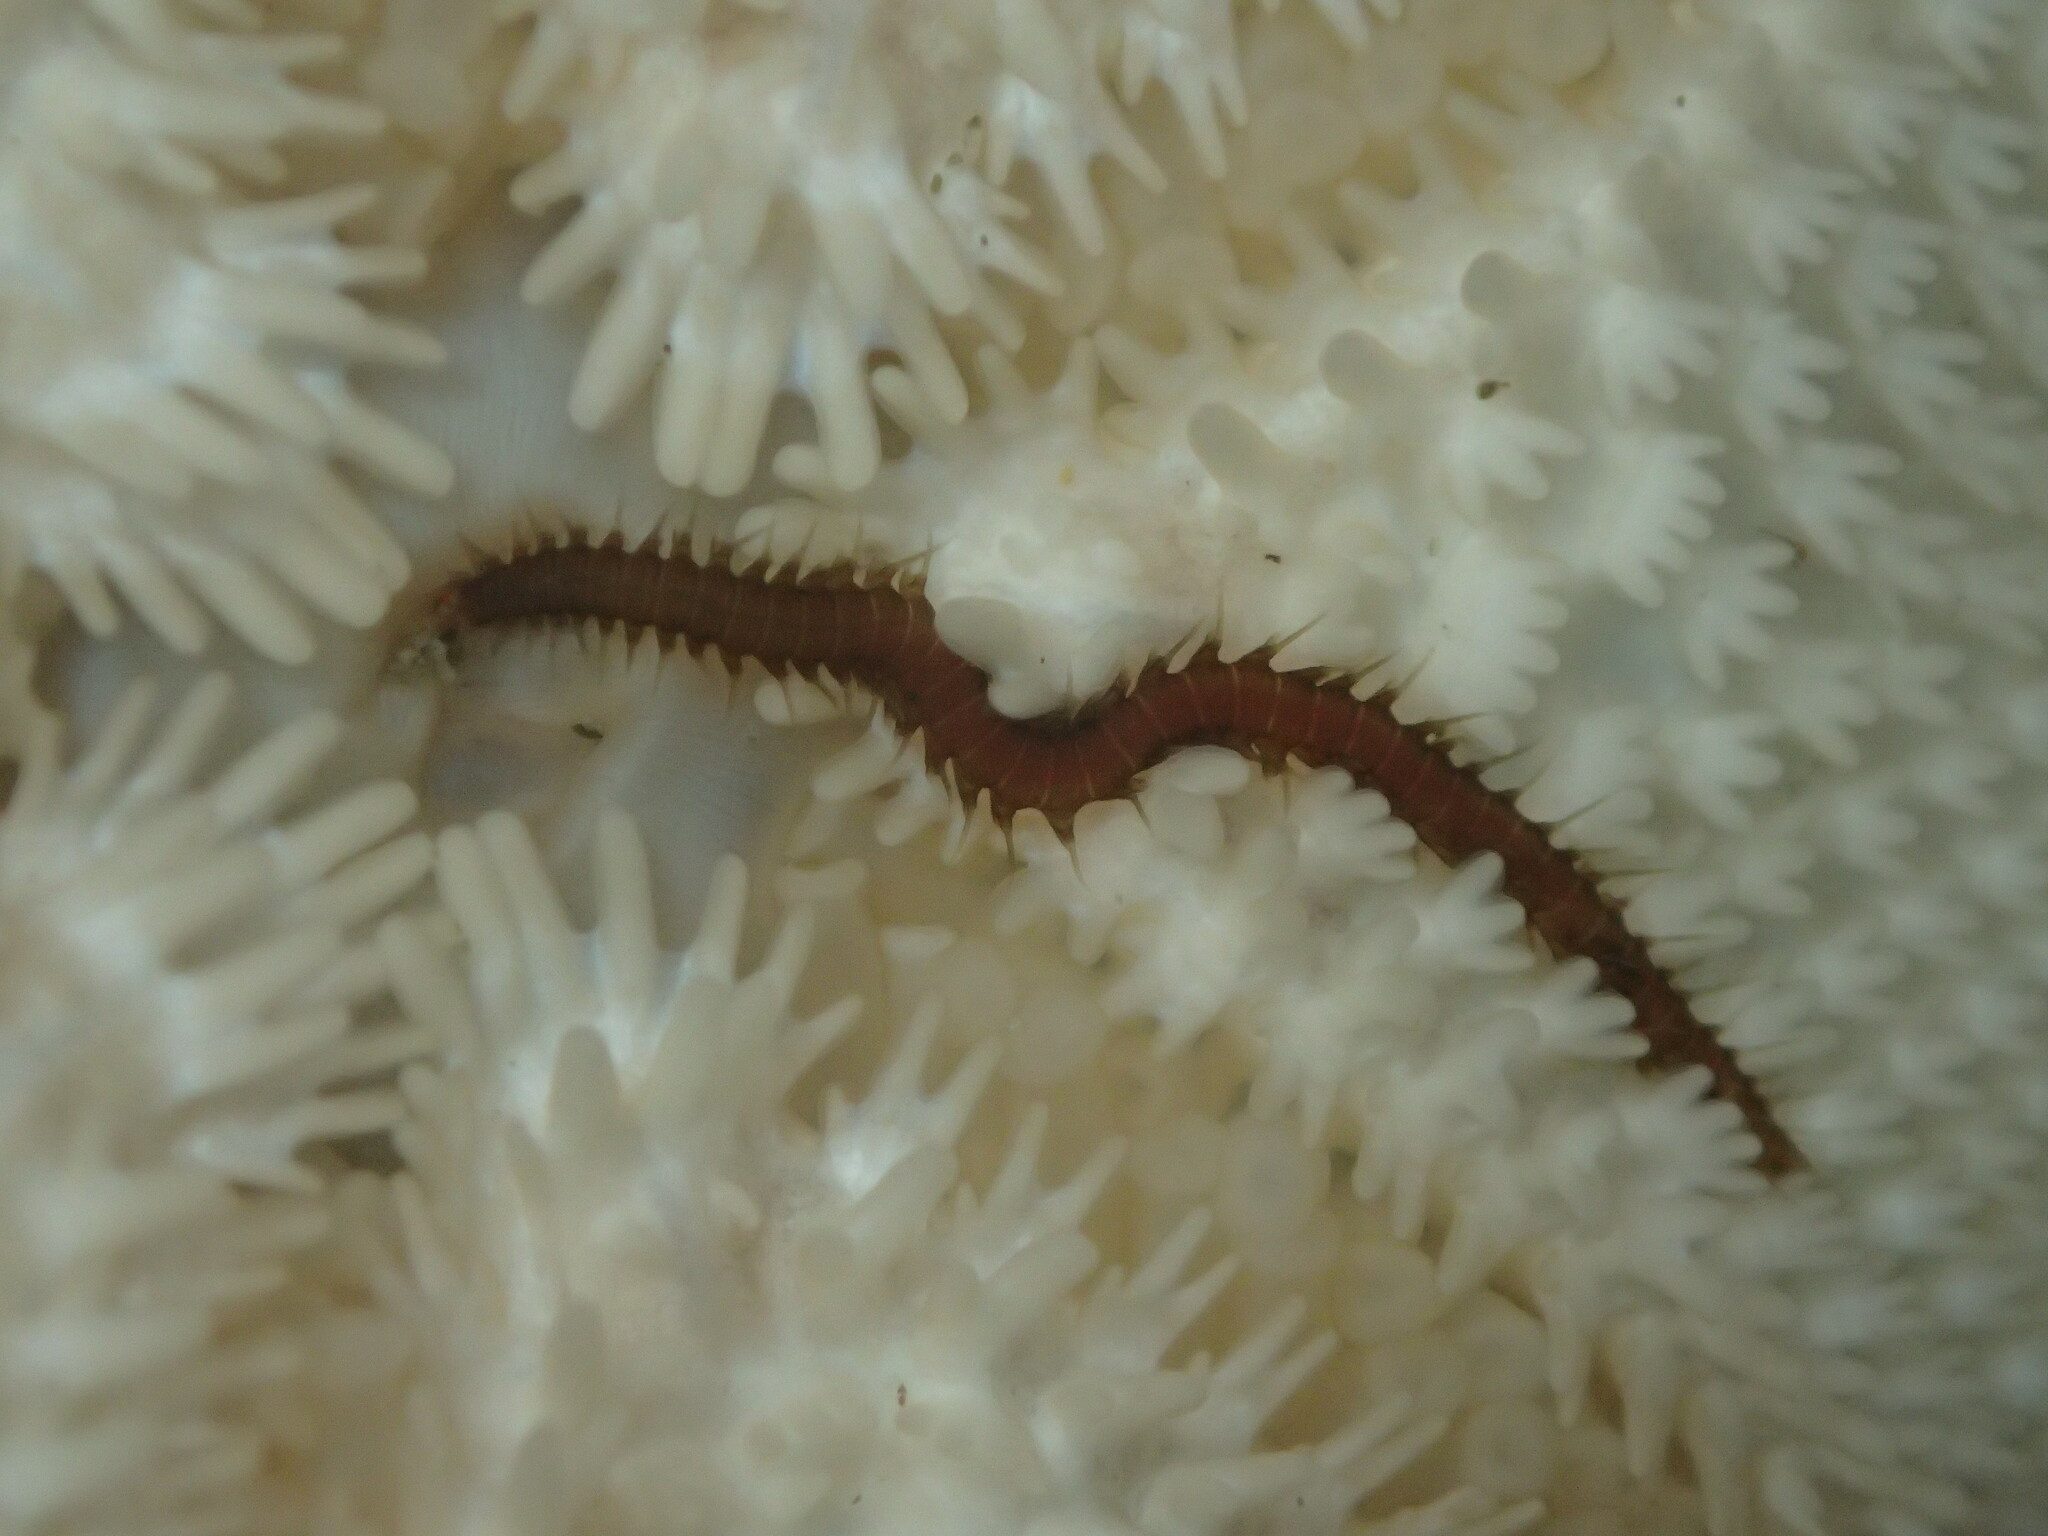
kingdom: Animalia
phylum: Annelida
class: Polychaeta
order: Phyllodocida
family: Hesionidae
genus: Oxydromus
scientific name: Oxydromus pugettensis
